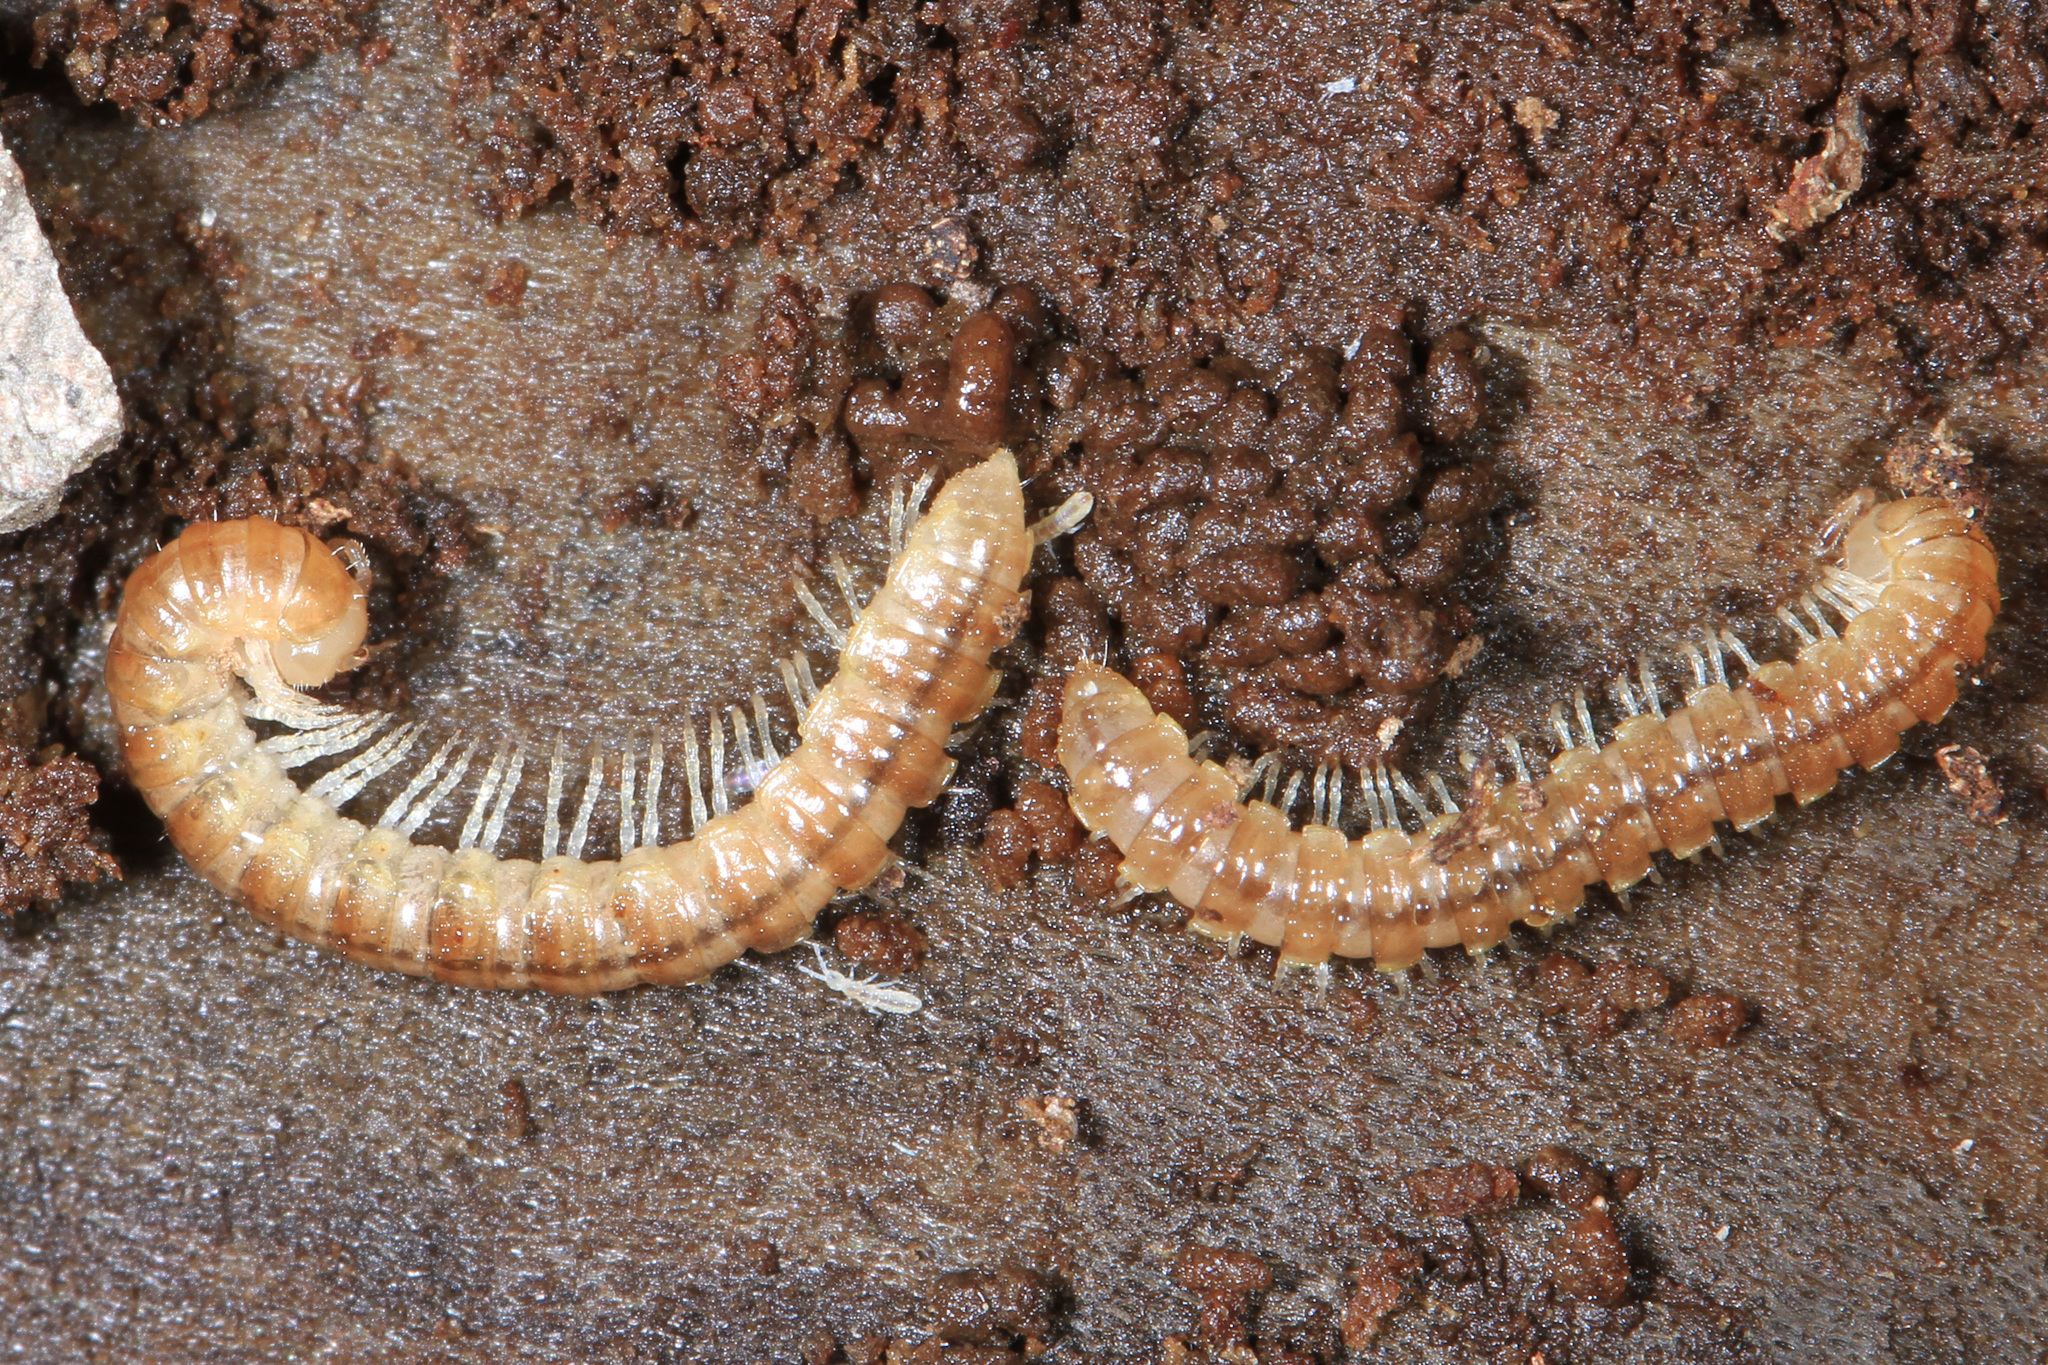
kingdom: Animalia
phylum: Arthropoda
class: Diplopoda
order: Polydesmida
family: Paradoxosomatidae
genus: Oxidus
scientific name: Oxidus gracilis
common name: Greenhouse millipede
